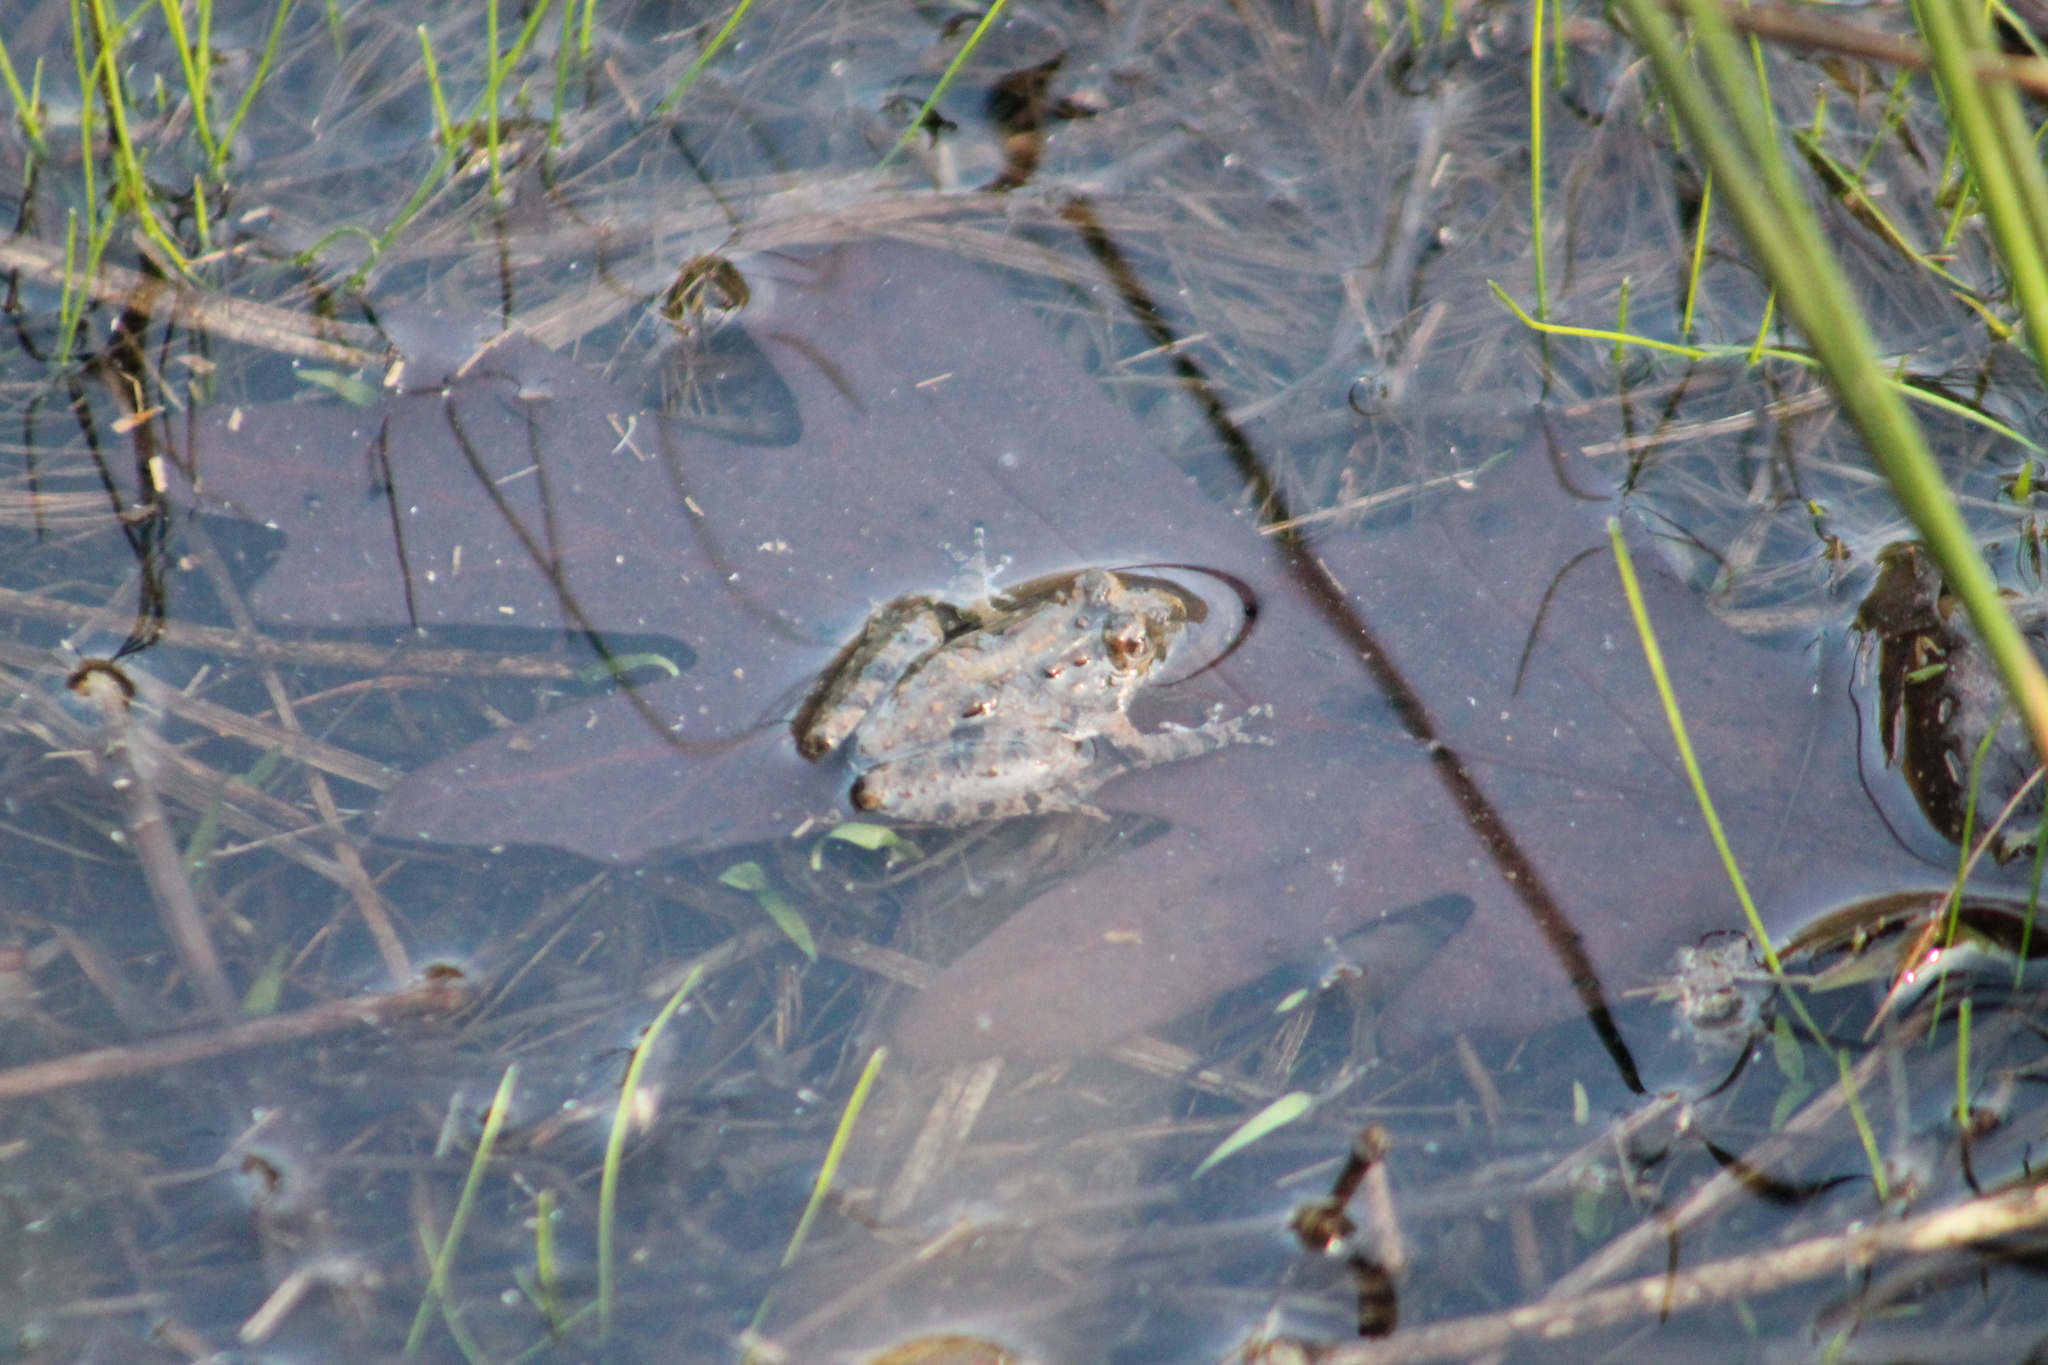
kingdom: Animalia
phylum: Chordata
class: Amphibia
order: Anura
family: Hylidae
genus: Acris
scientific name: Acris crepitans
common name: Northern cricket frog
